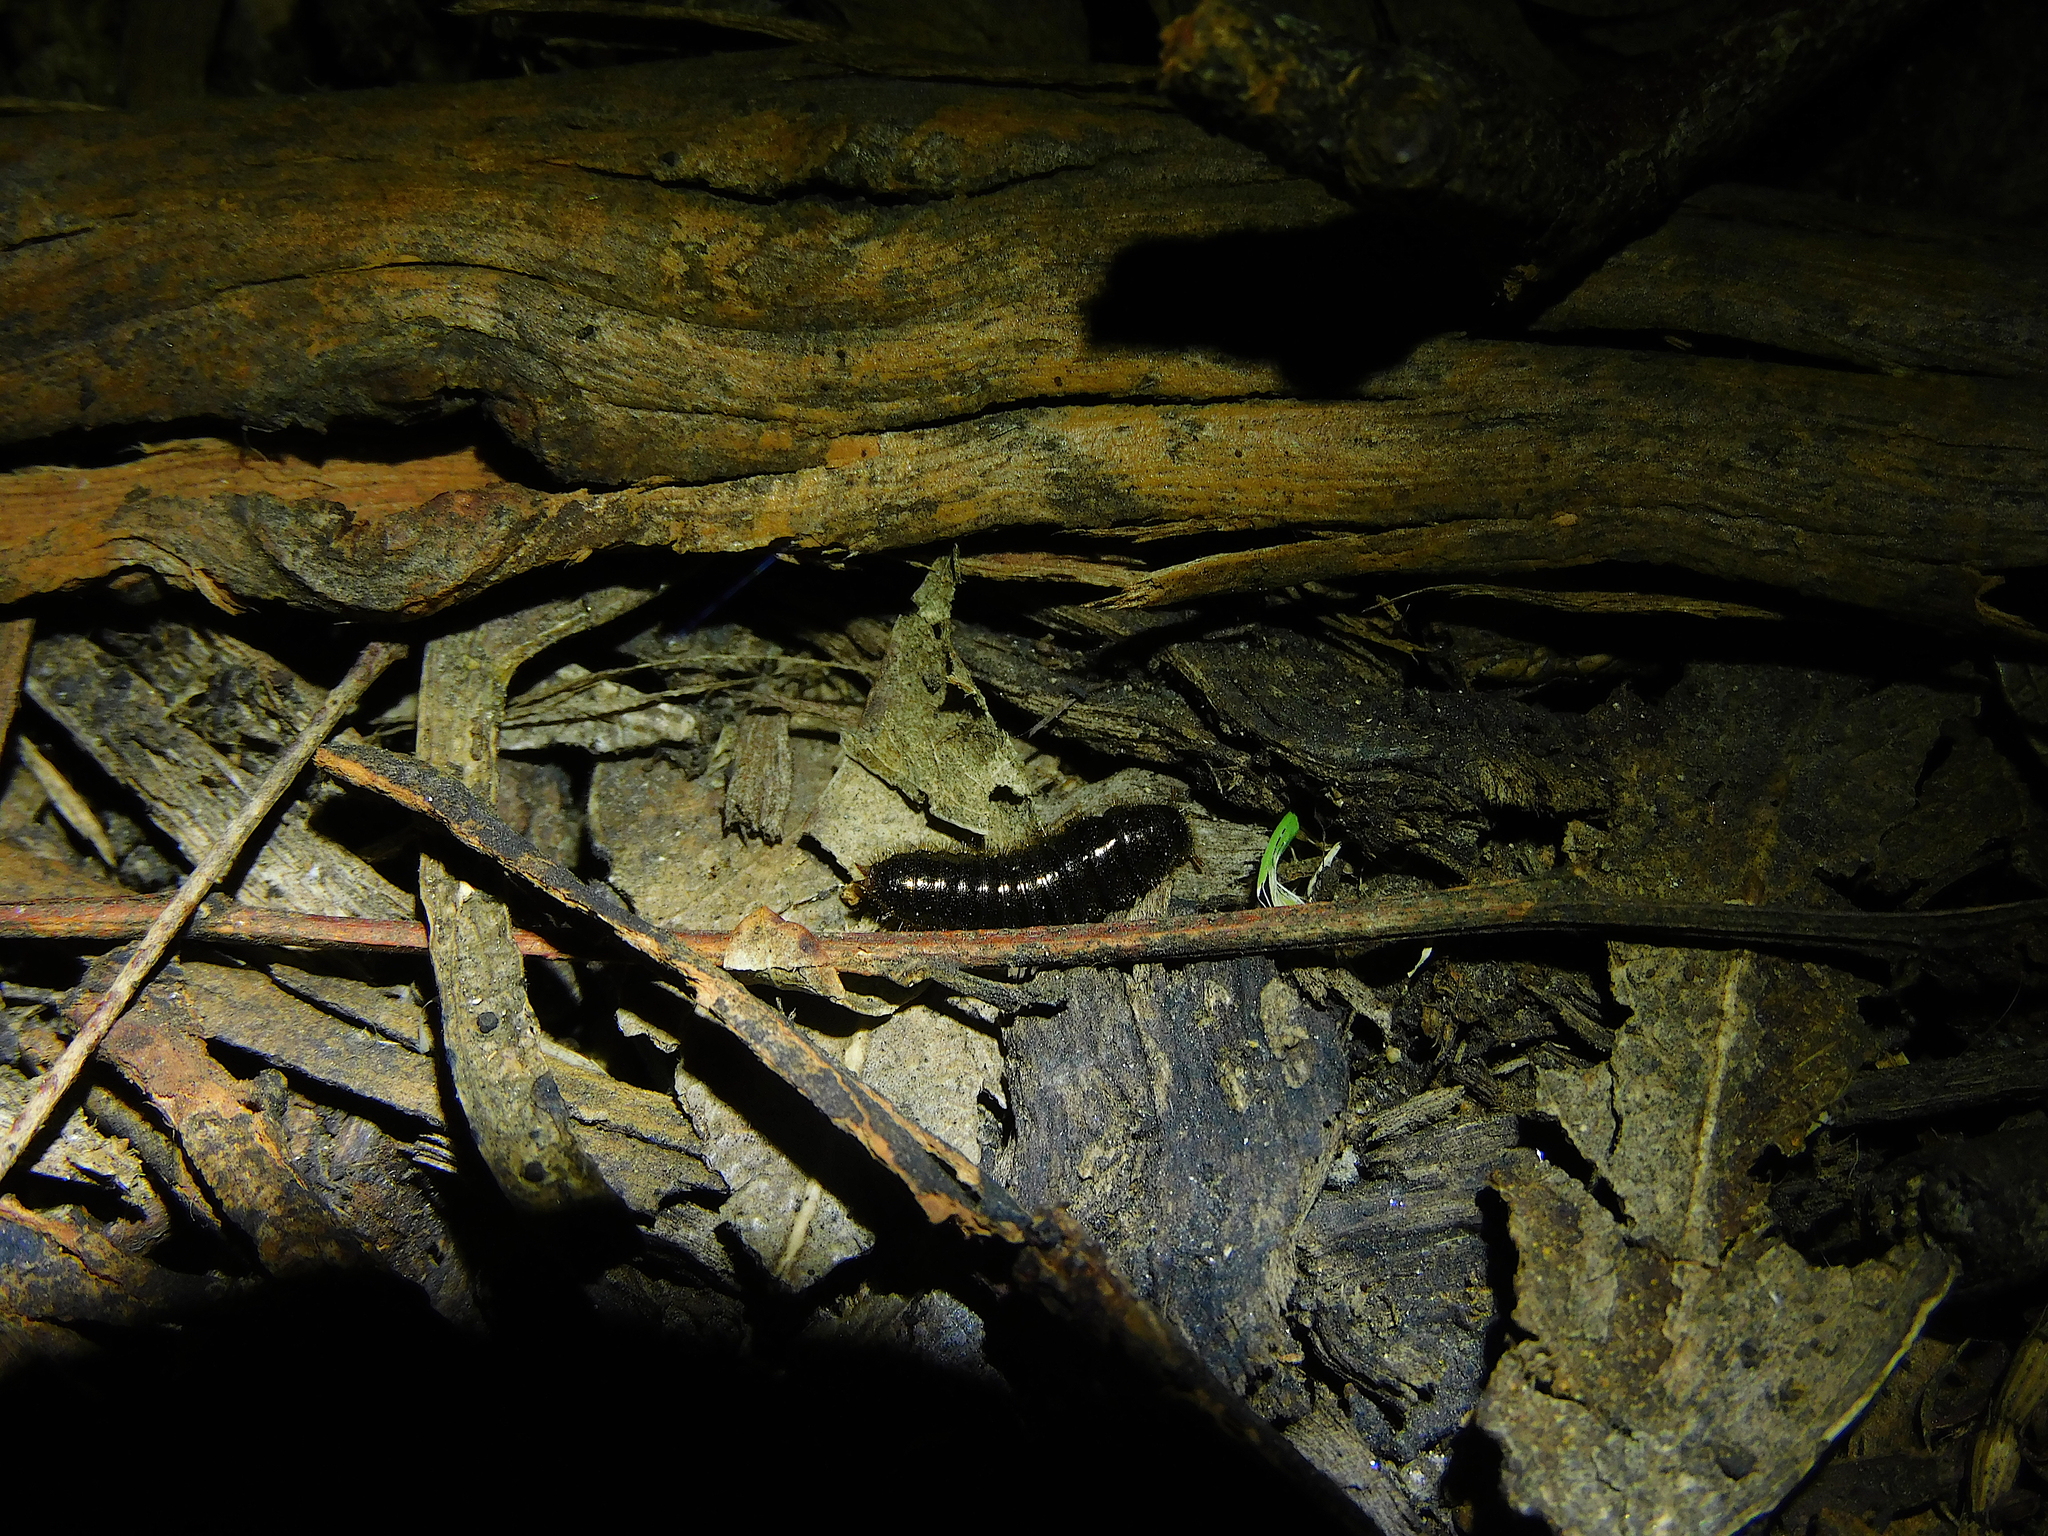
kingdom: Animalia
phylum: Arthropoda
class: Insecta
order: Coleoptera
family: Tenebrionidae
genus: Ecnolagria
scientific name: Ecnolagria
